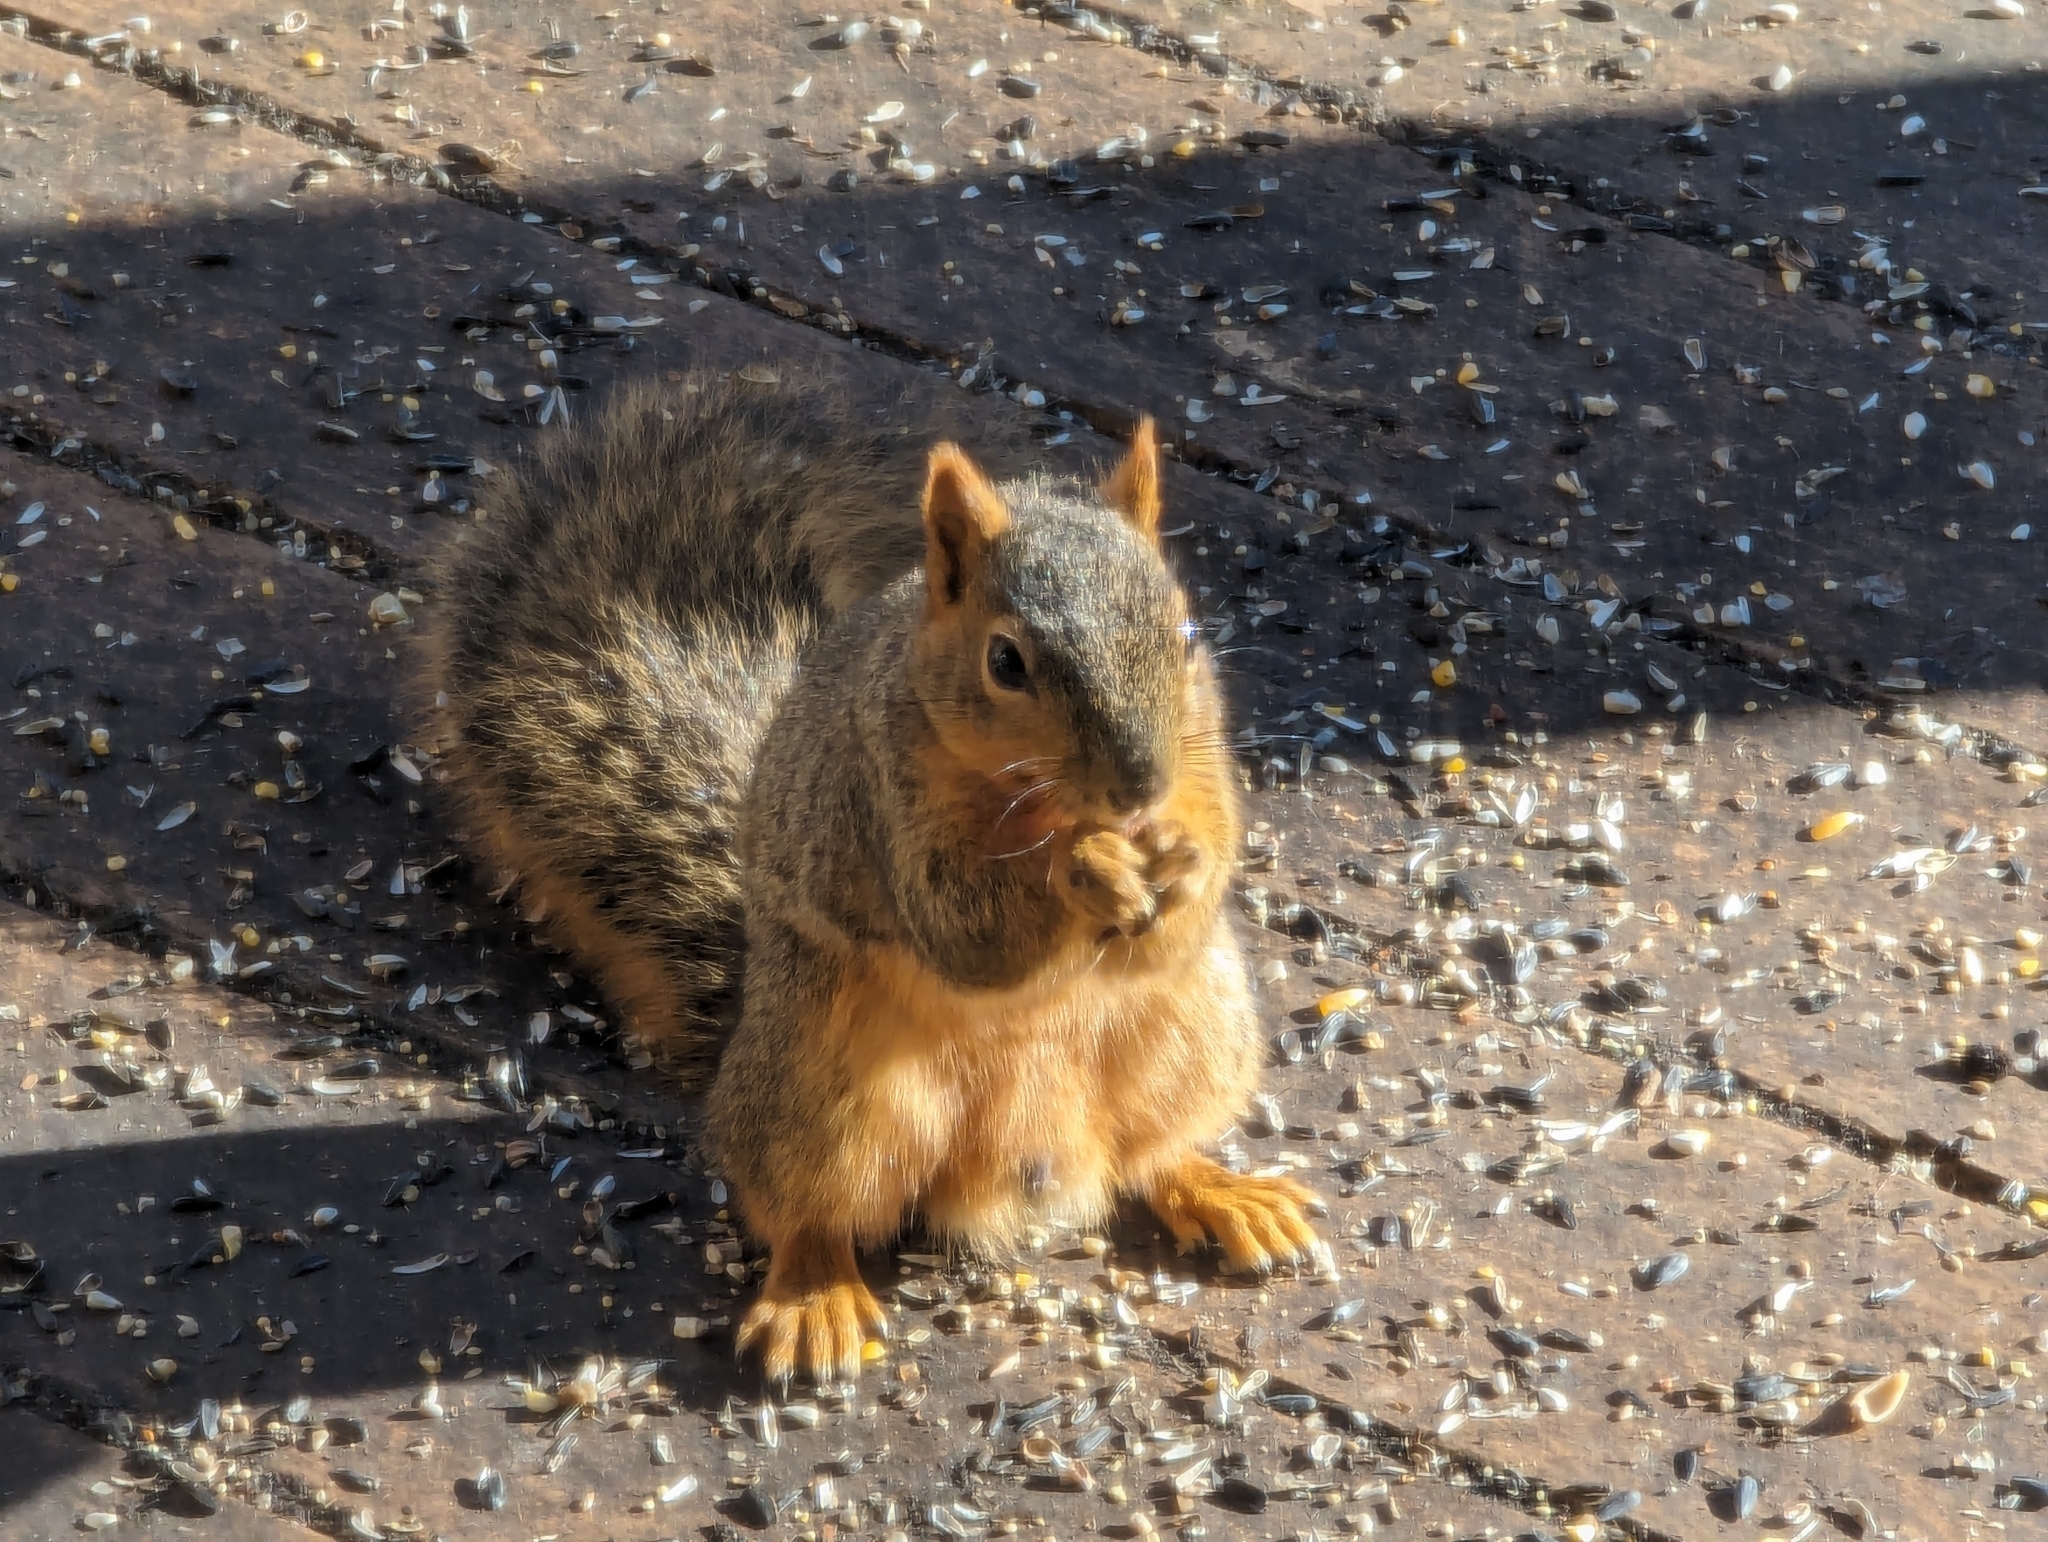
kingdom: Animalia
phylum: Chordata
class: Mammalia
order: Rodentia
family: Sciuridae
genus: Sciurus
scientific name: Sciurus niger
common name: Fox squirrel
